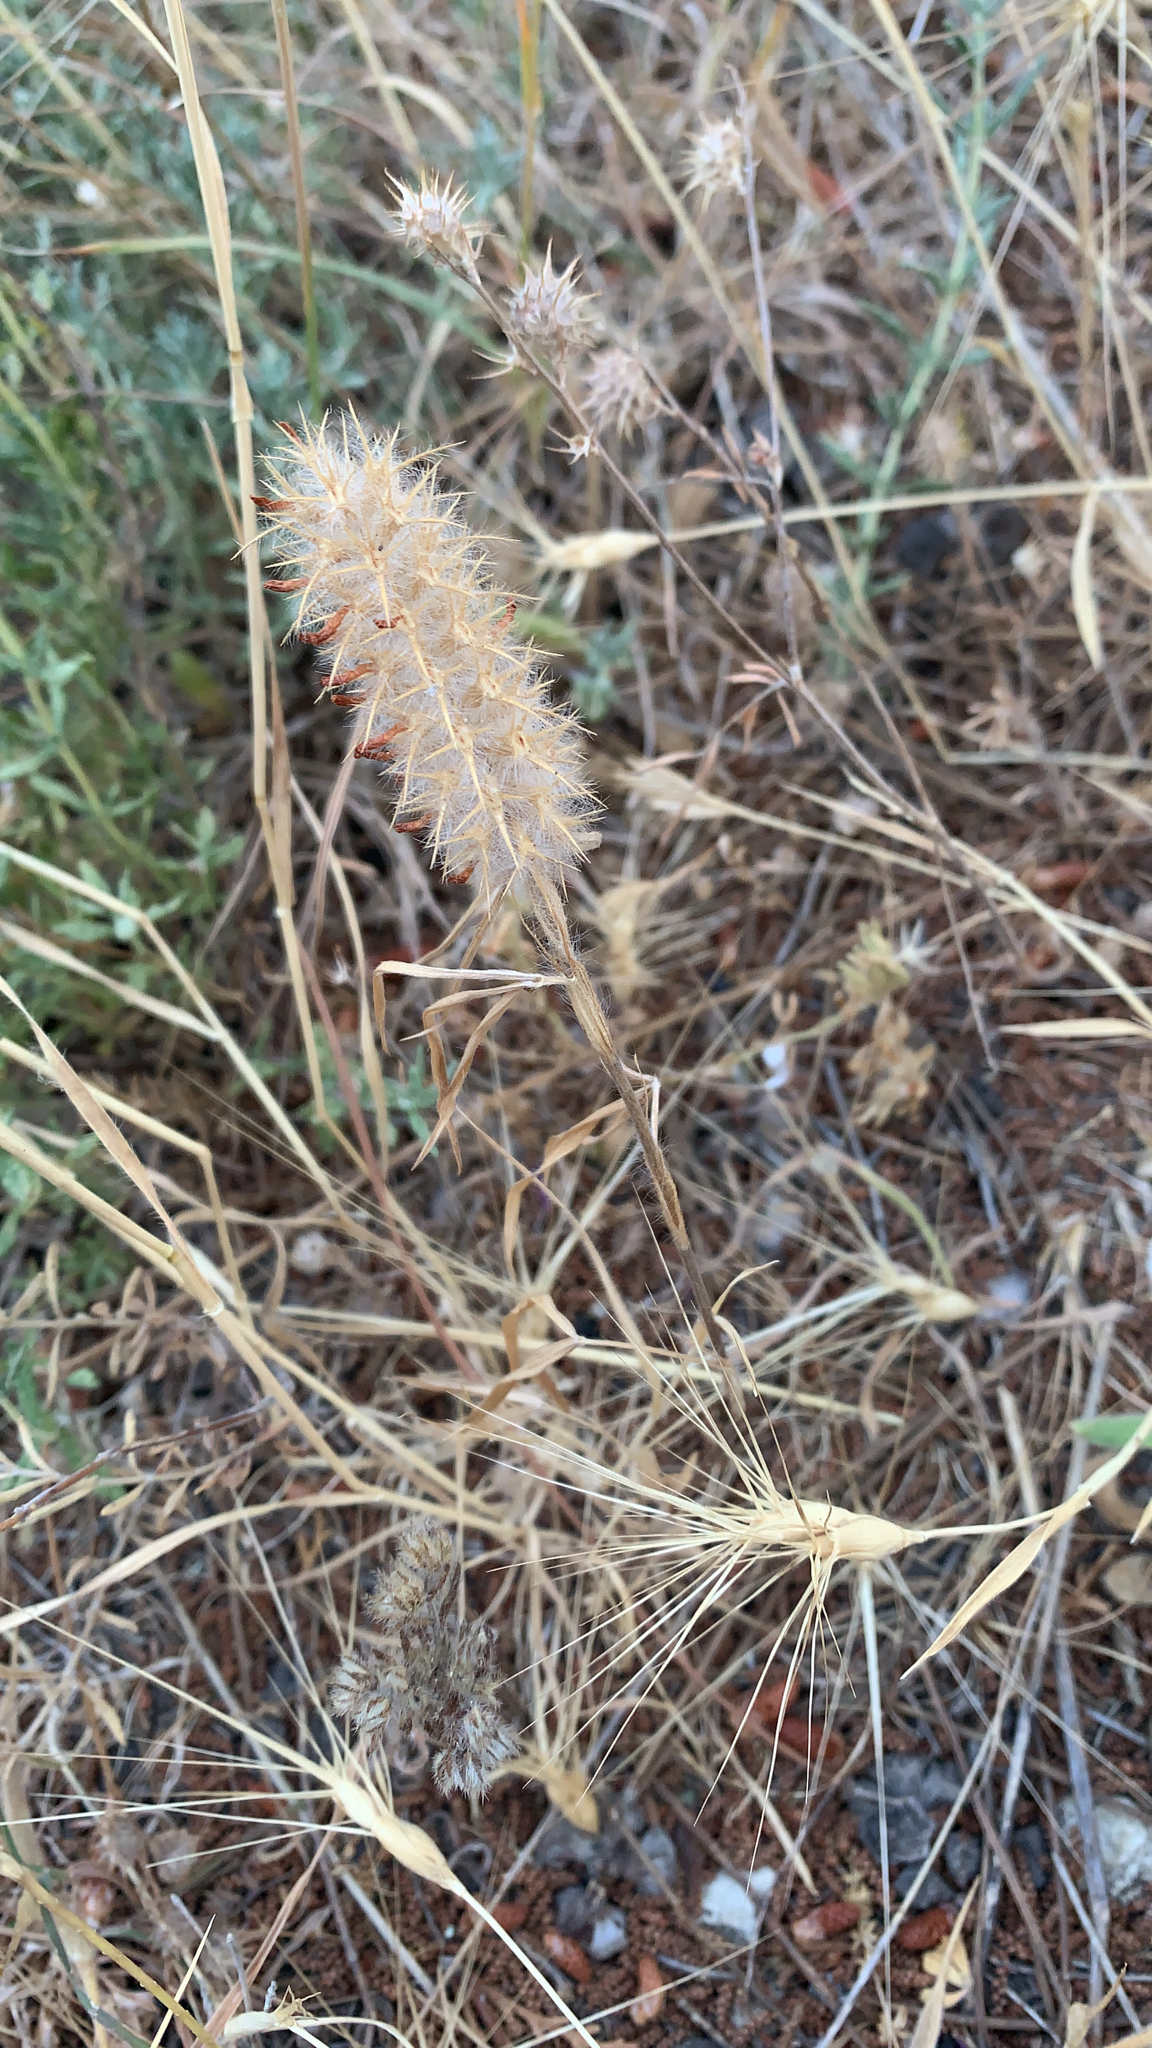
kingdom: Plantae
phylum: Tracheophyta
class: Magnoliopsida
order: Fabales
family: Fabaceae
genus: Trifolium
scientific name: Trifolium angustifolium
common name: Narrow clover
